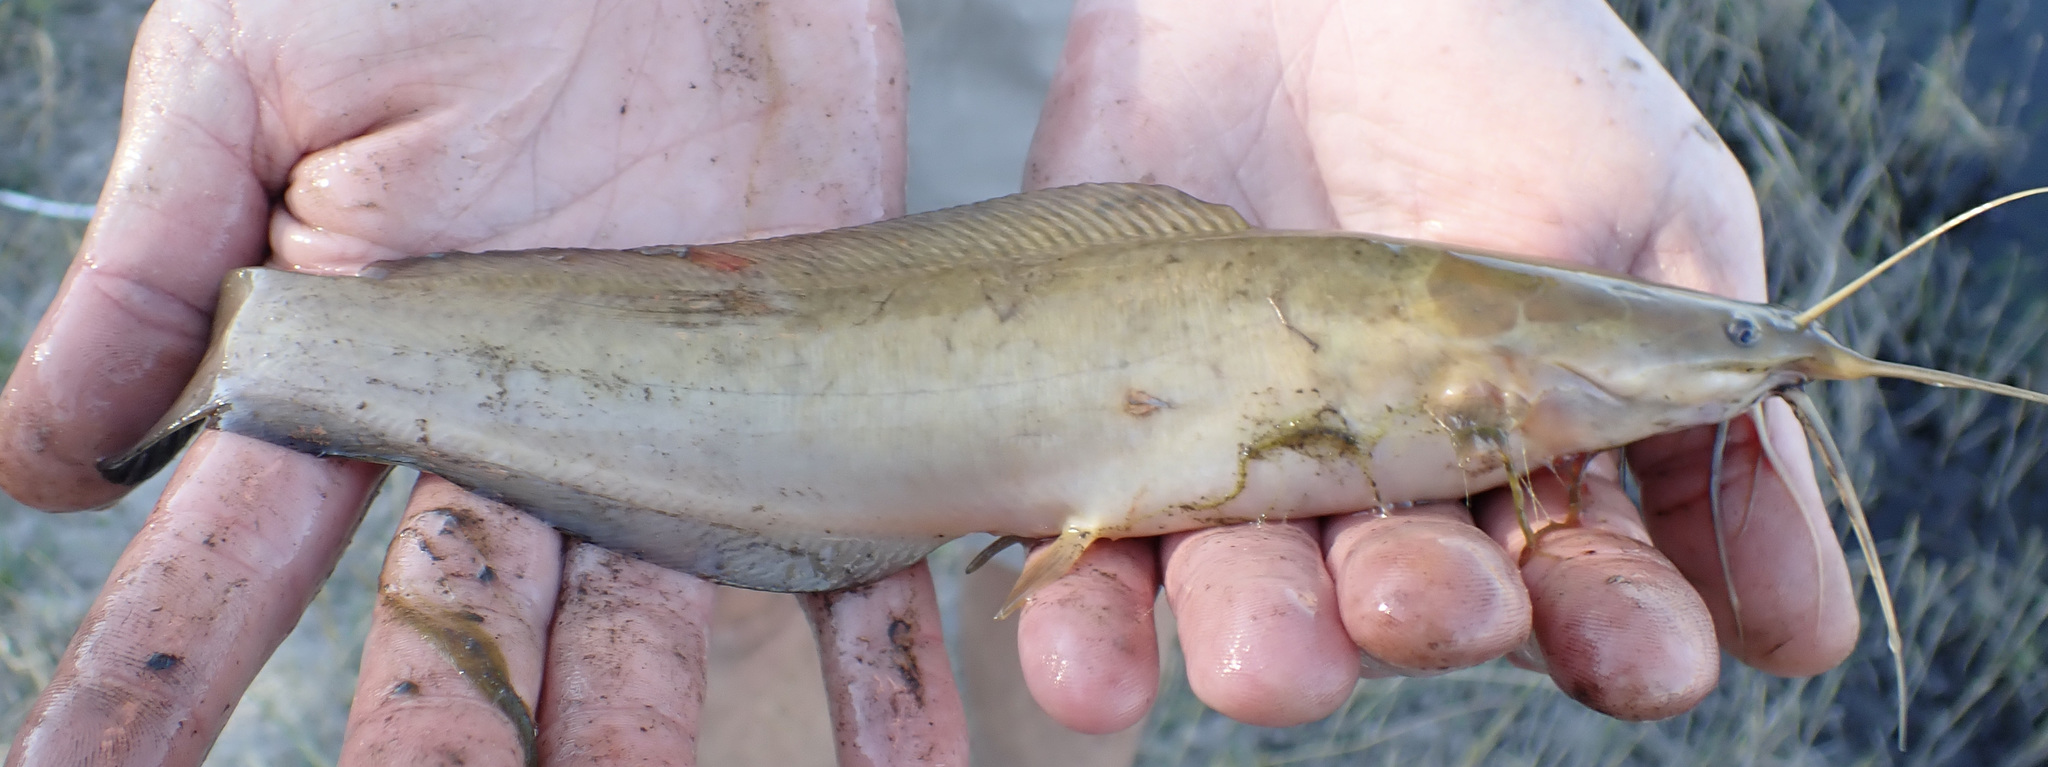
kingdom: Animalia
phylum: Chordata
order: Siluriformes
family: Clariidae
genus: Clarias
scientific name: Clarias gariepinus
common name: African catfish
